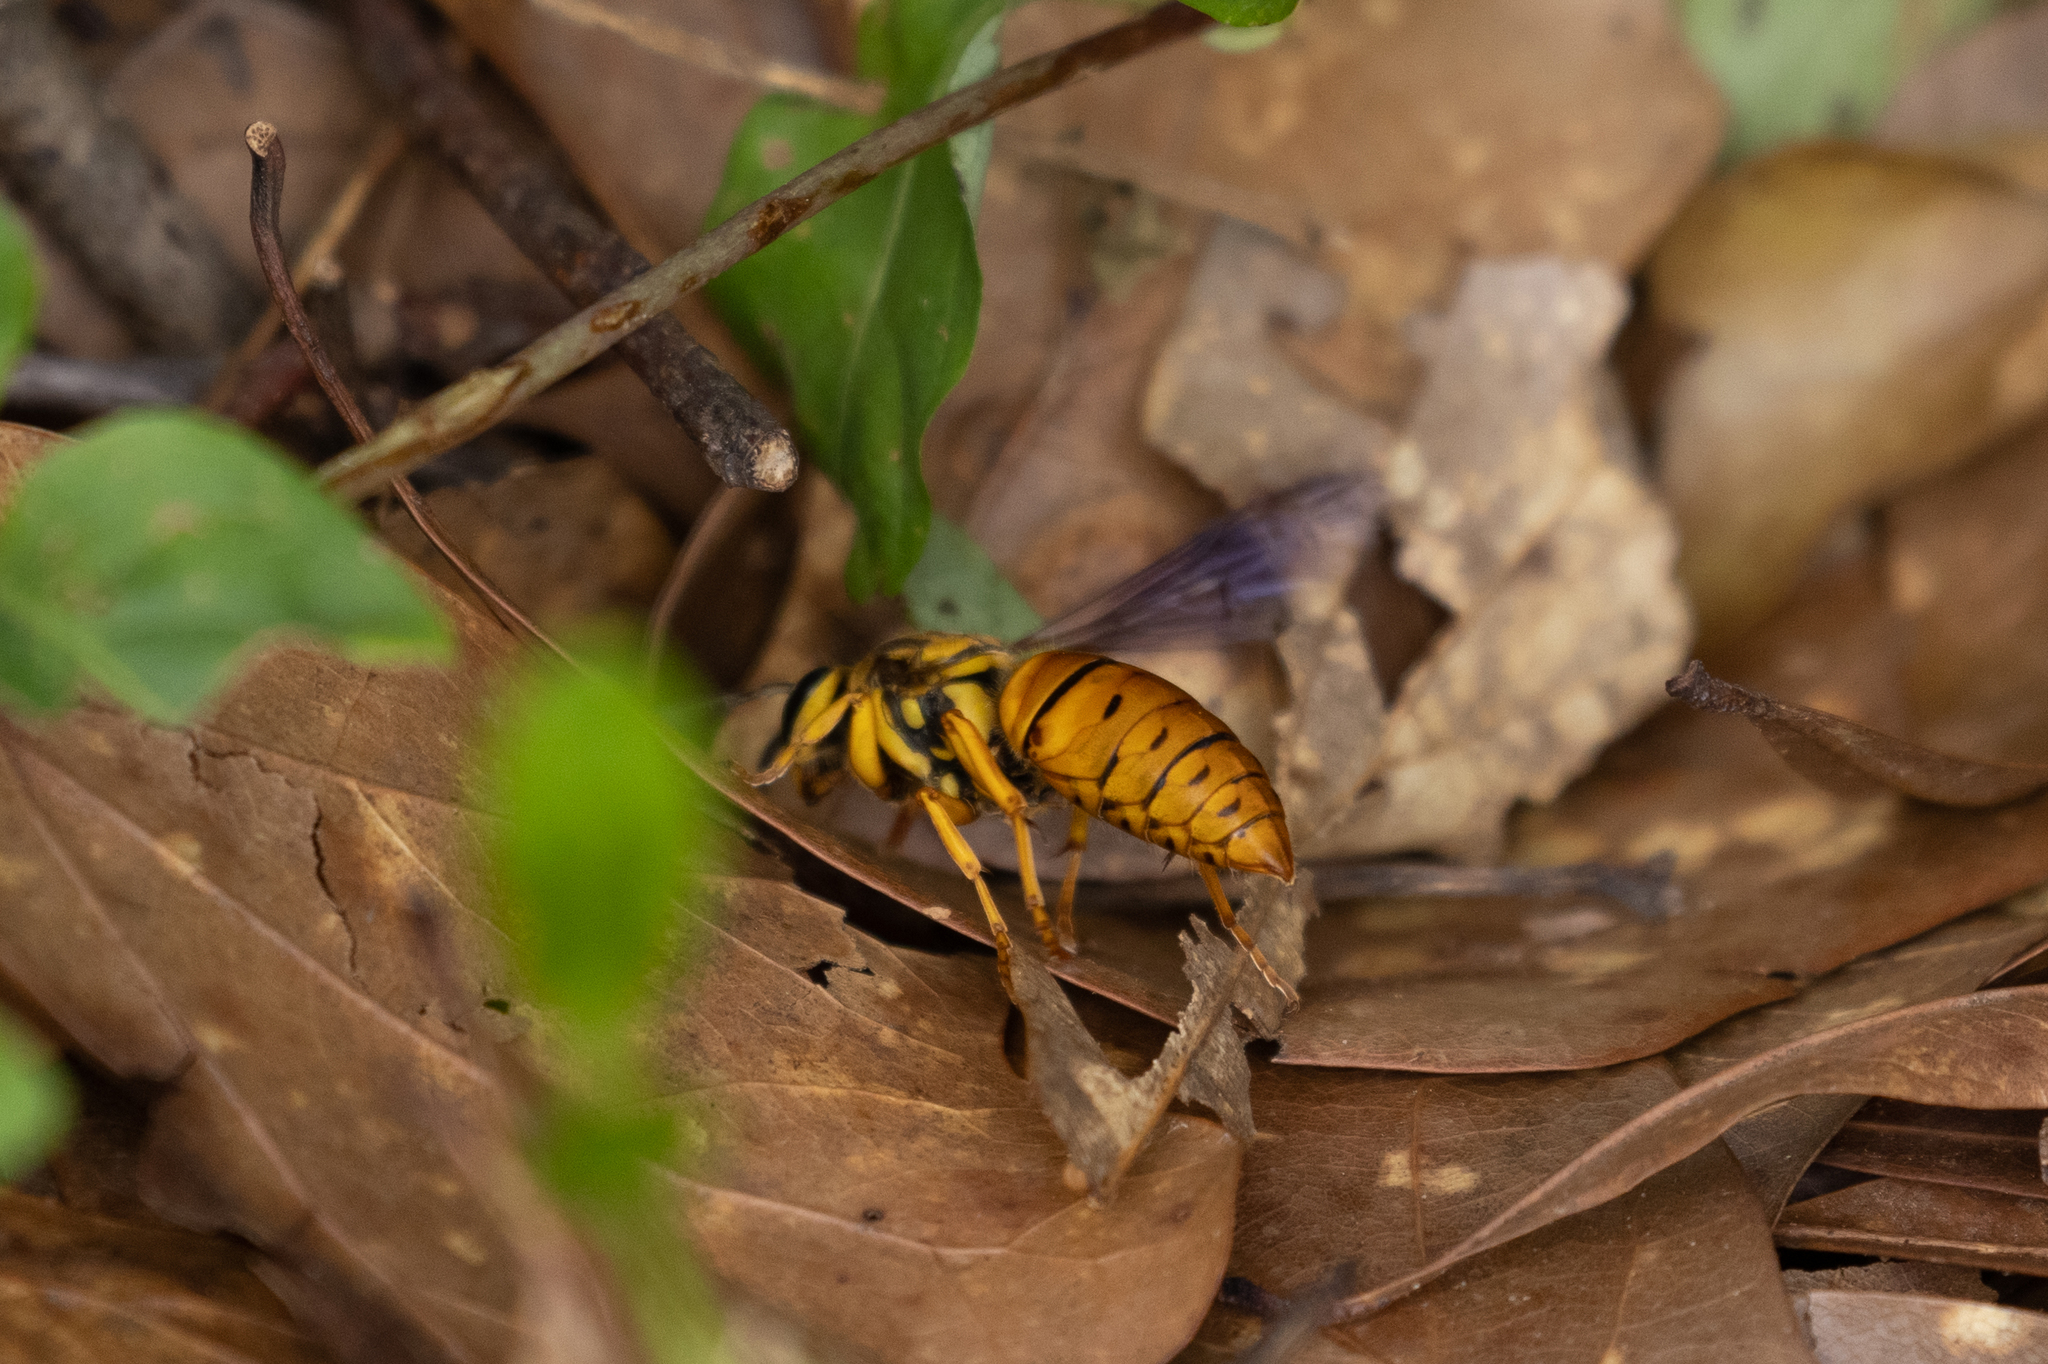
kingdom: Animalia
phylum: Arthropoda
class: Insecta
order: Hymenoptera
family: Vespidae
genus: Vespula
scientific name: Vespula squamosa
